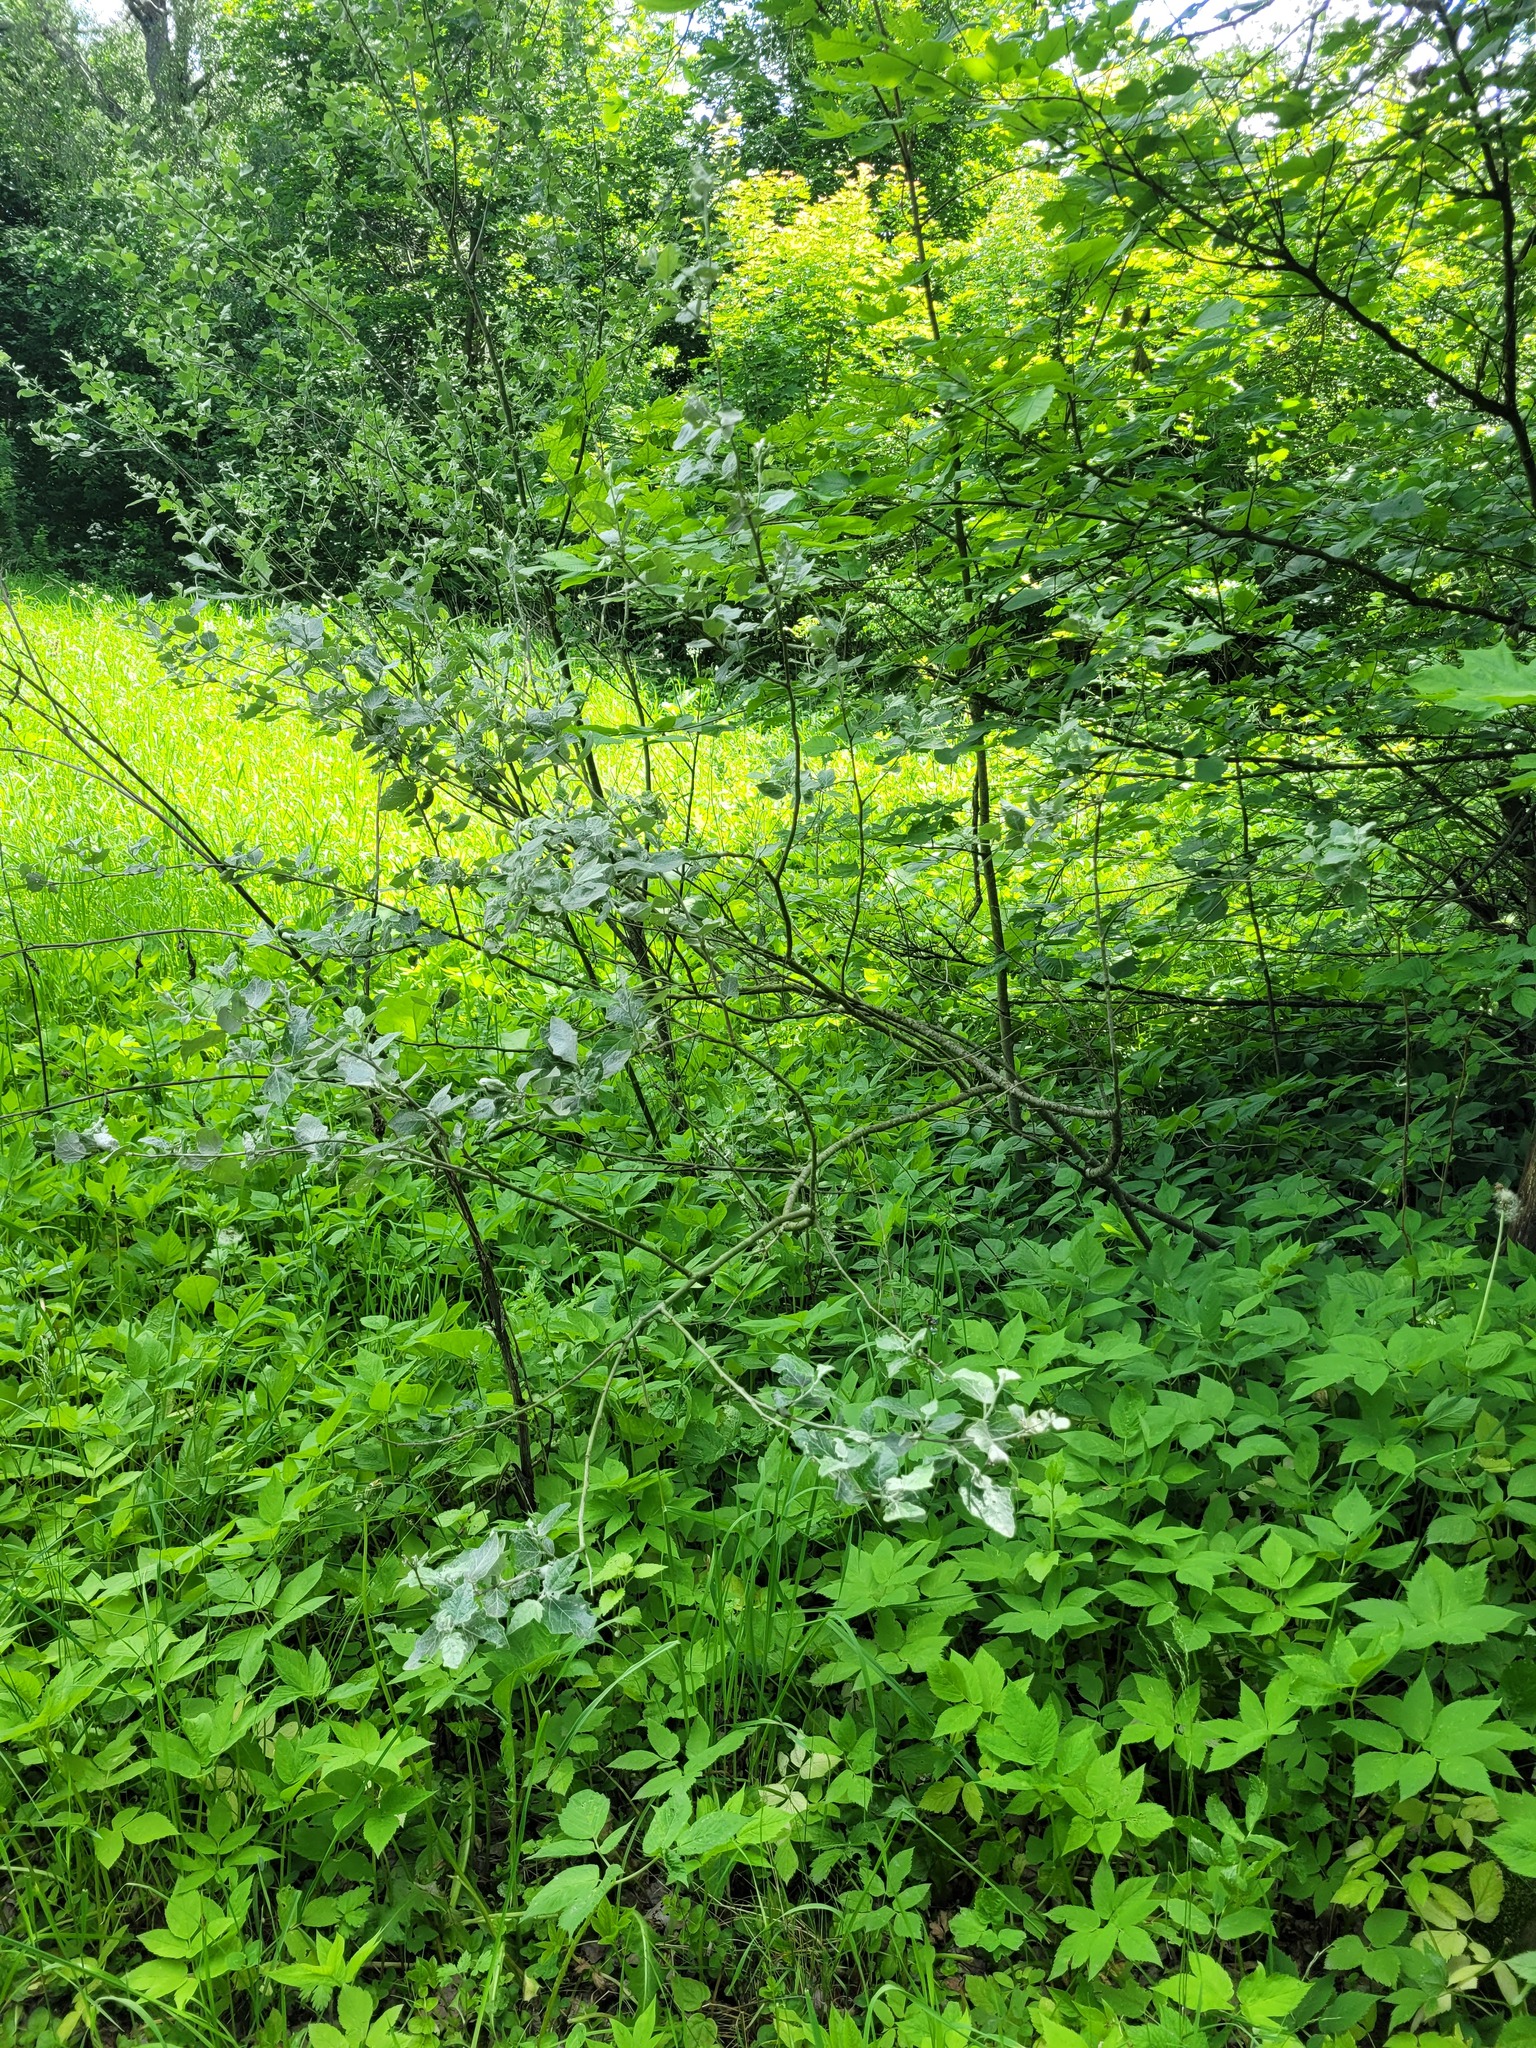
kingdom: Plantae
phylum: Tracheophyta
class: Magnoliopsida
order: Malpighiales
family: Salicaceae
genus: Populus
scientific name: Populus alba
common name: White poplar
